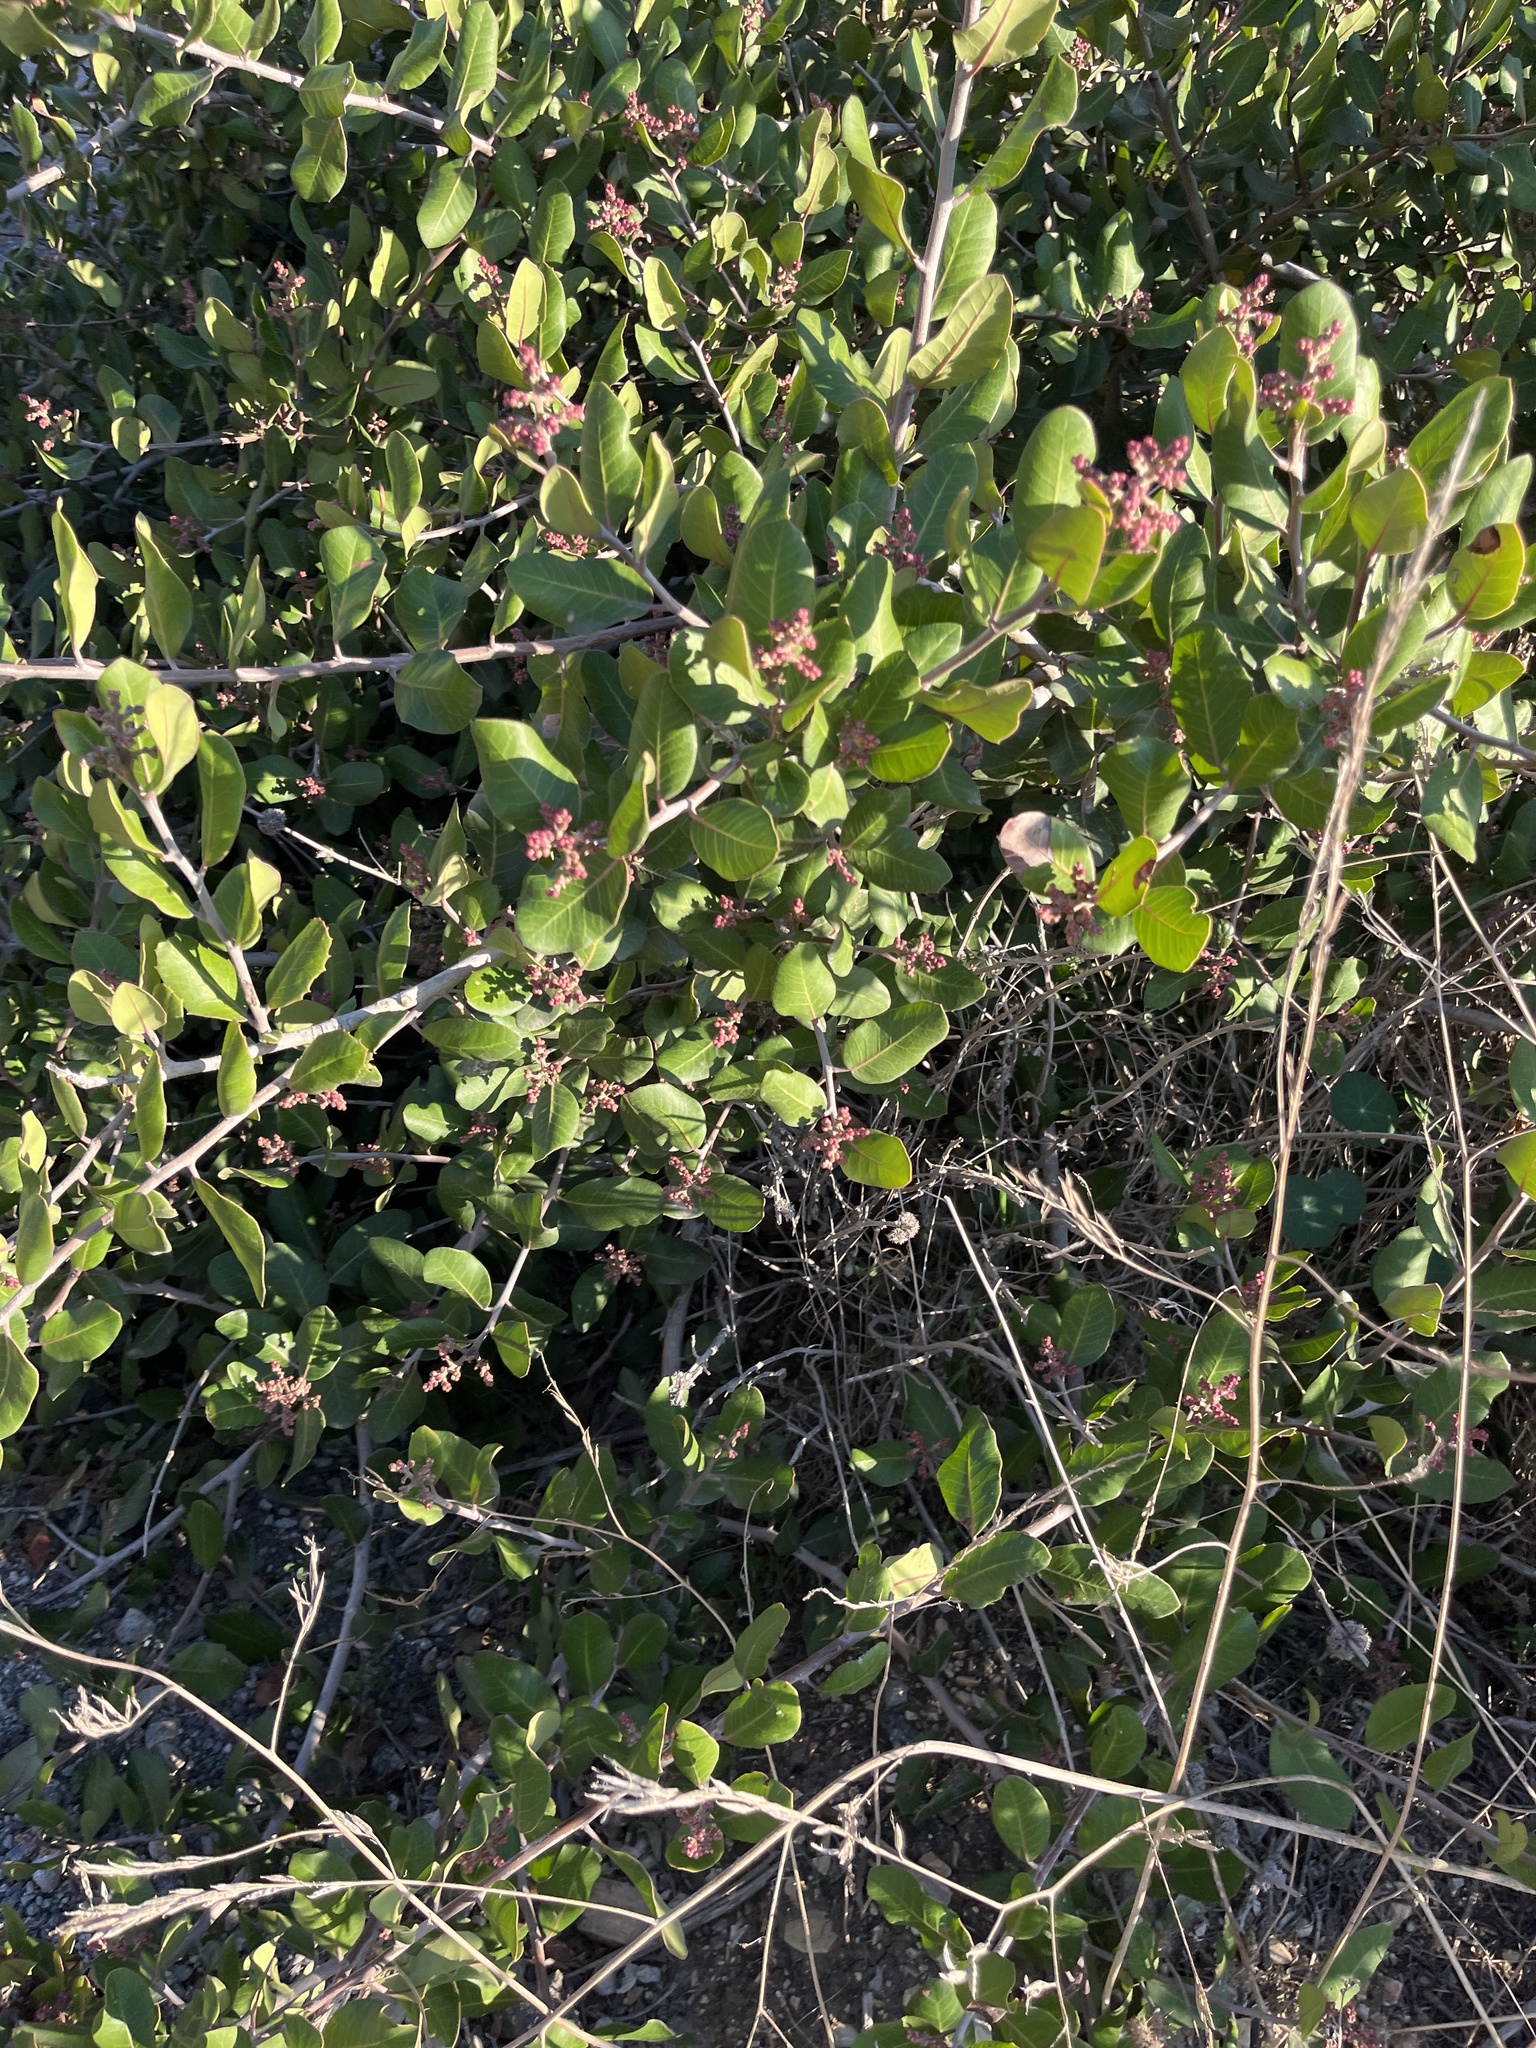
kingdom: Plantae
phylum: Tracheophyta
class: Magnoliopsida
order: Sapindales
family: Anacardiaceae
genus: Rhus
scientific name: Rhus integrifolia
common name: Lemonade sumac
